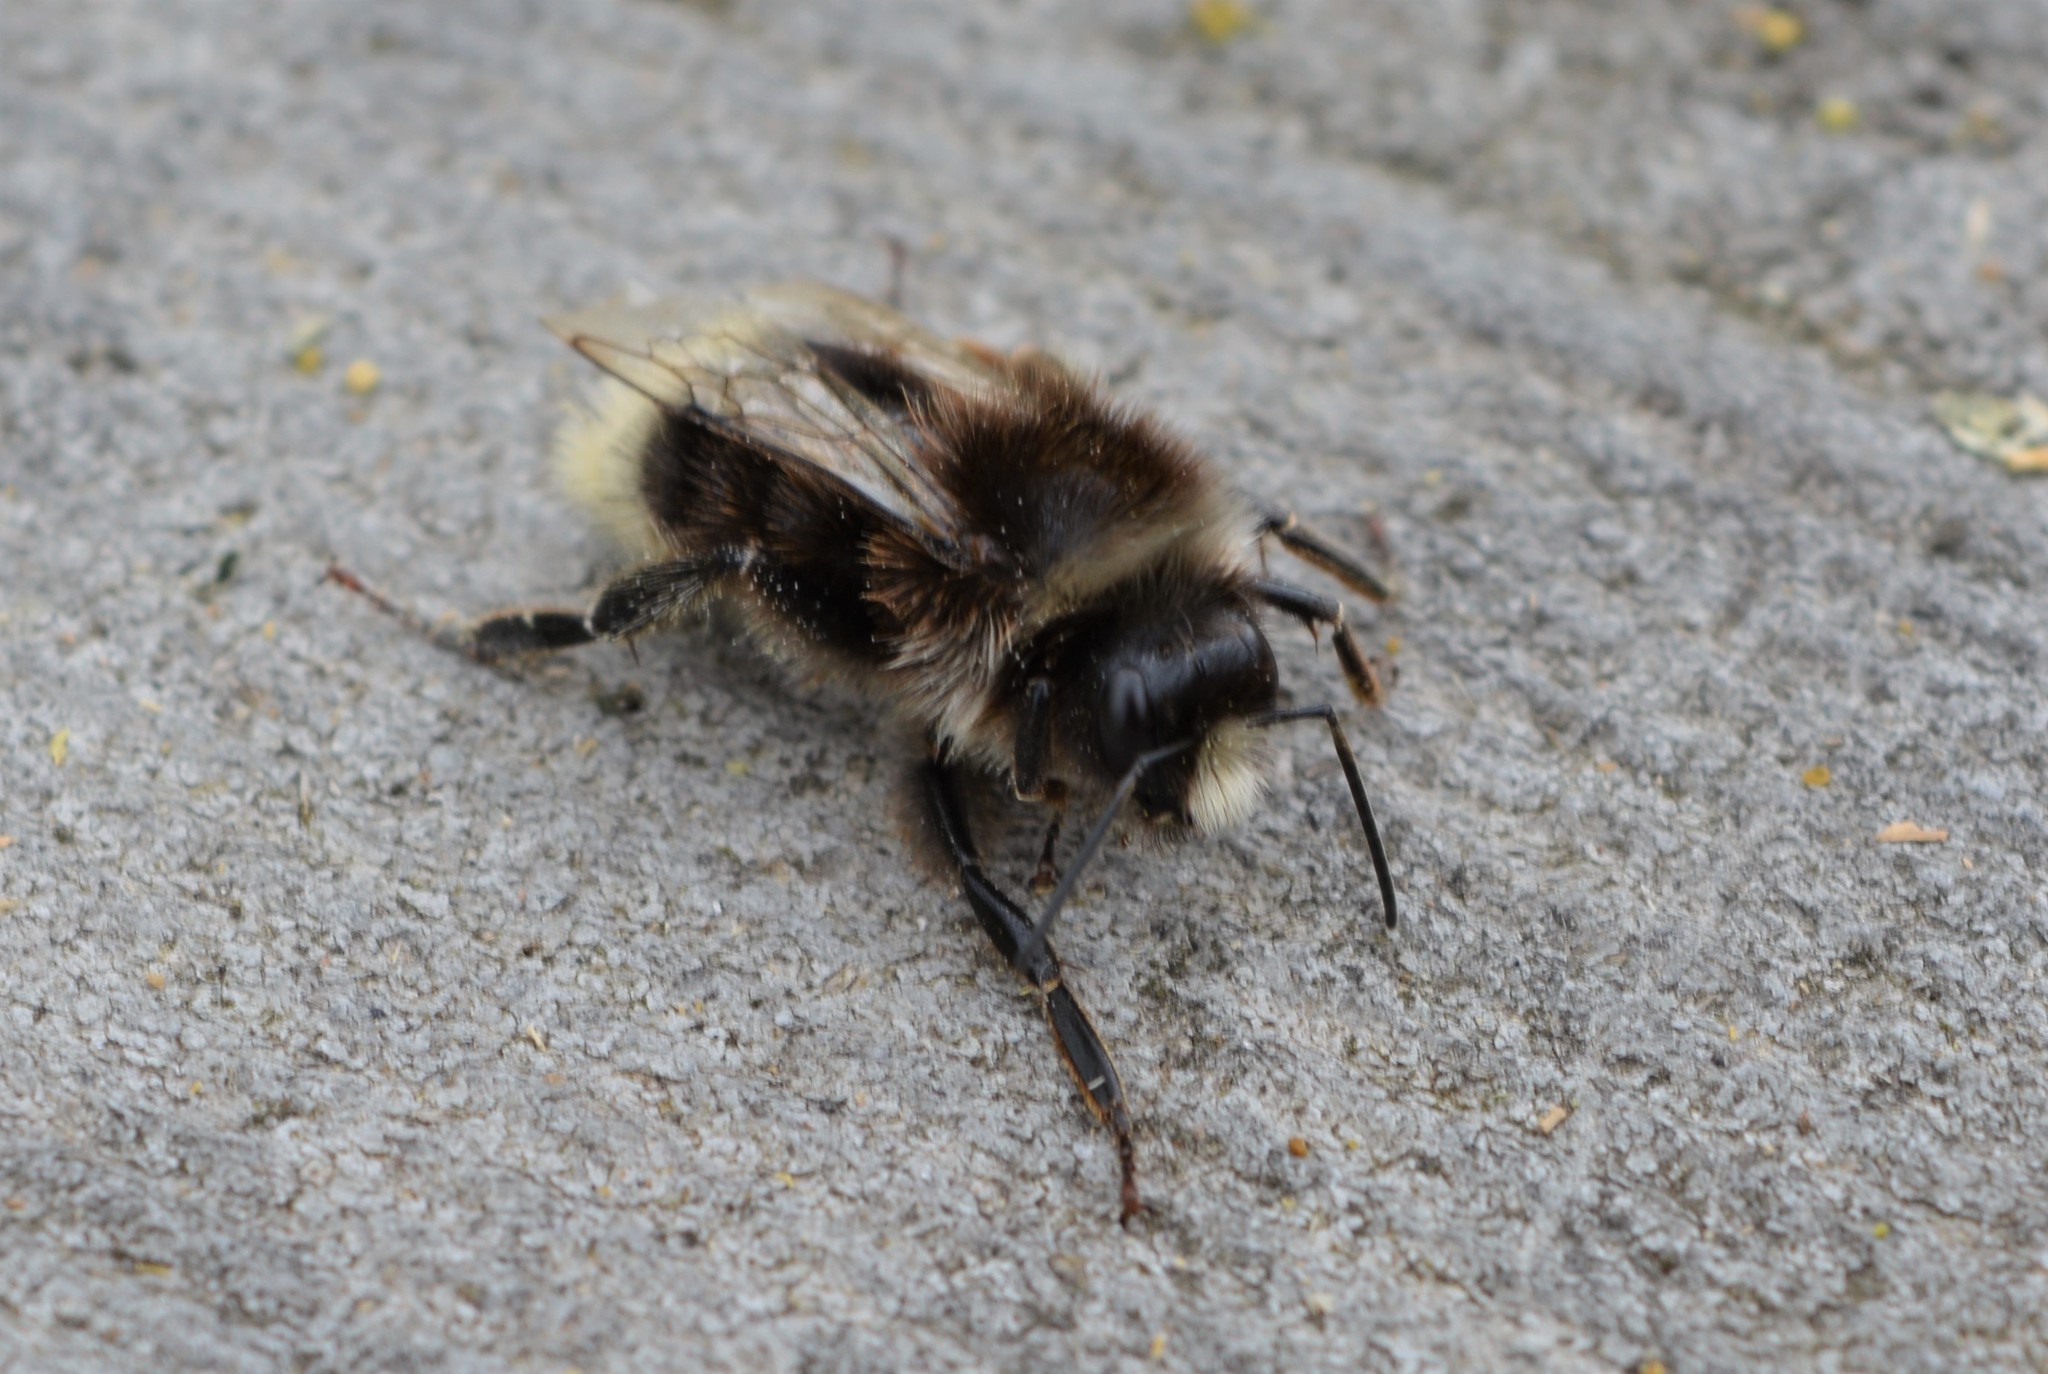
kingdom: Animalia
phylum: Arthropoda
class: Insecta
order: Hymenoptera
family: Apidae
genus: Bombus
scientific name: Bombus lapidarius
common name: Large red-tailed humble-bee
